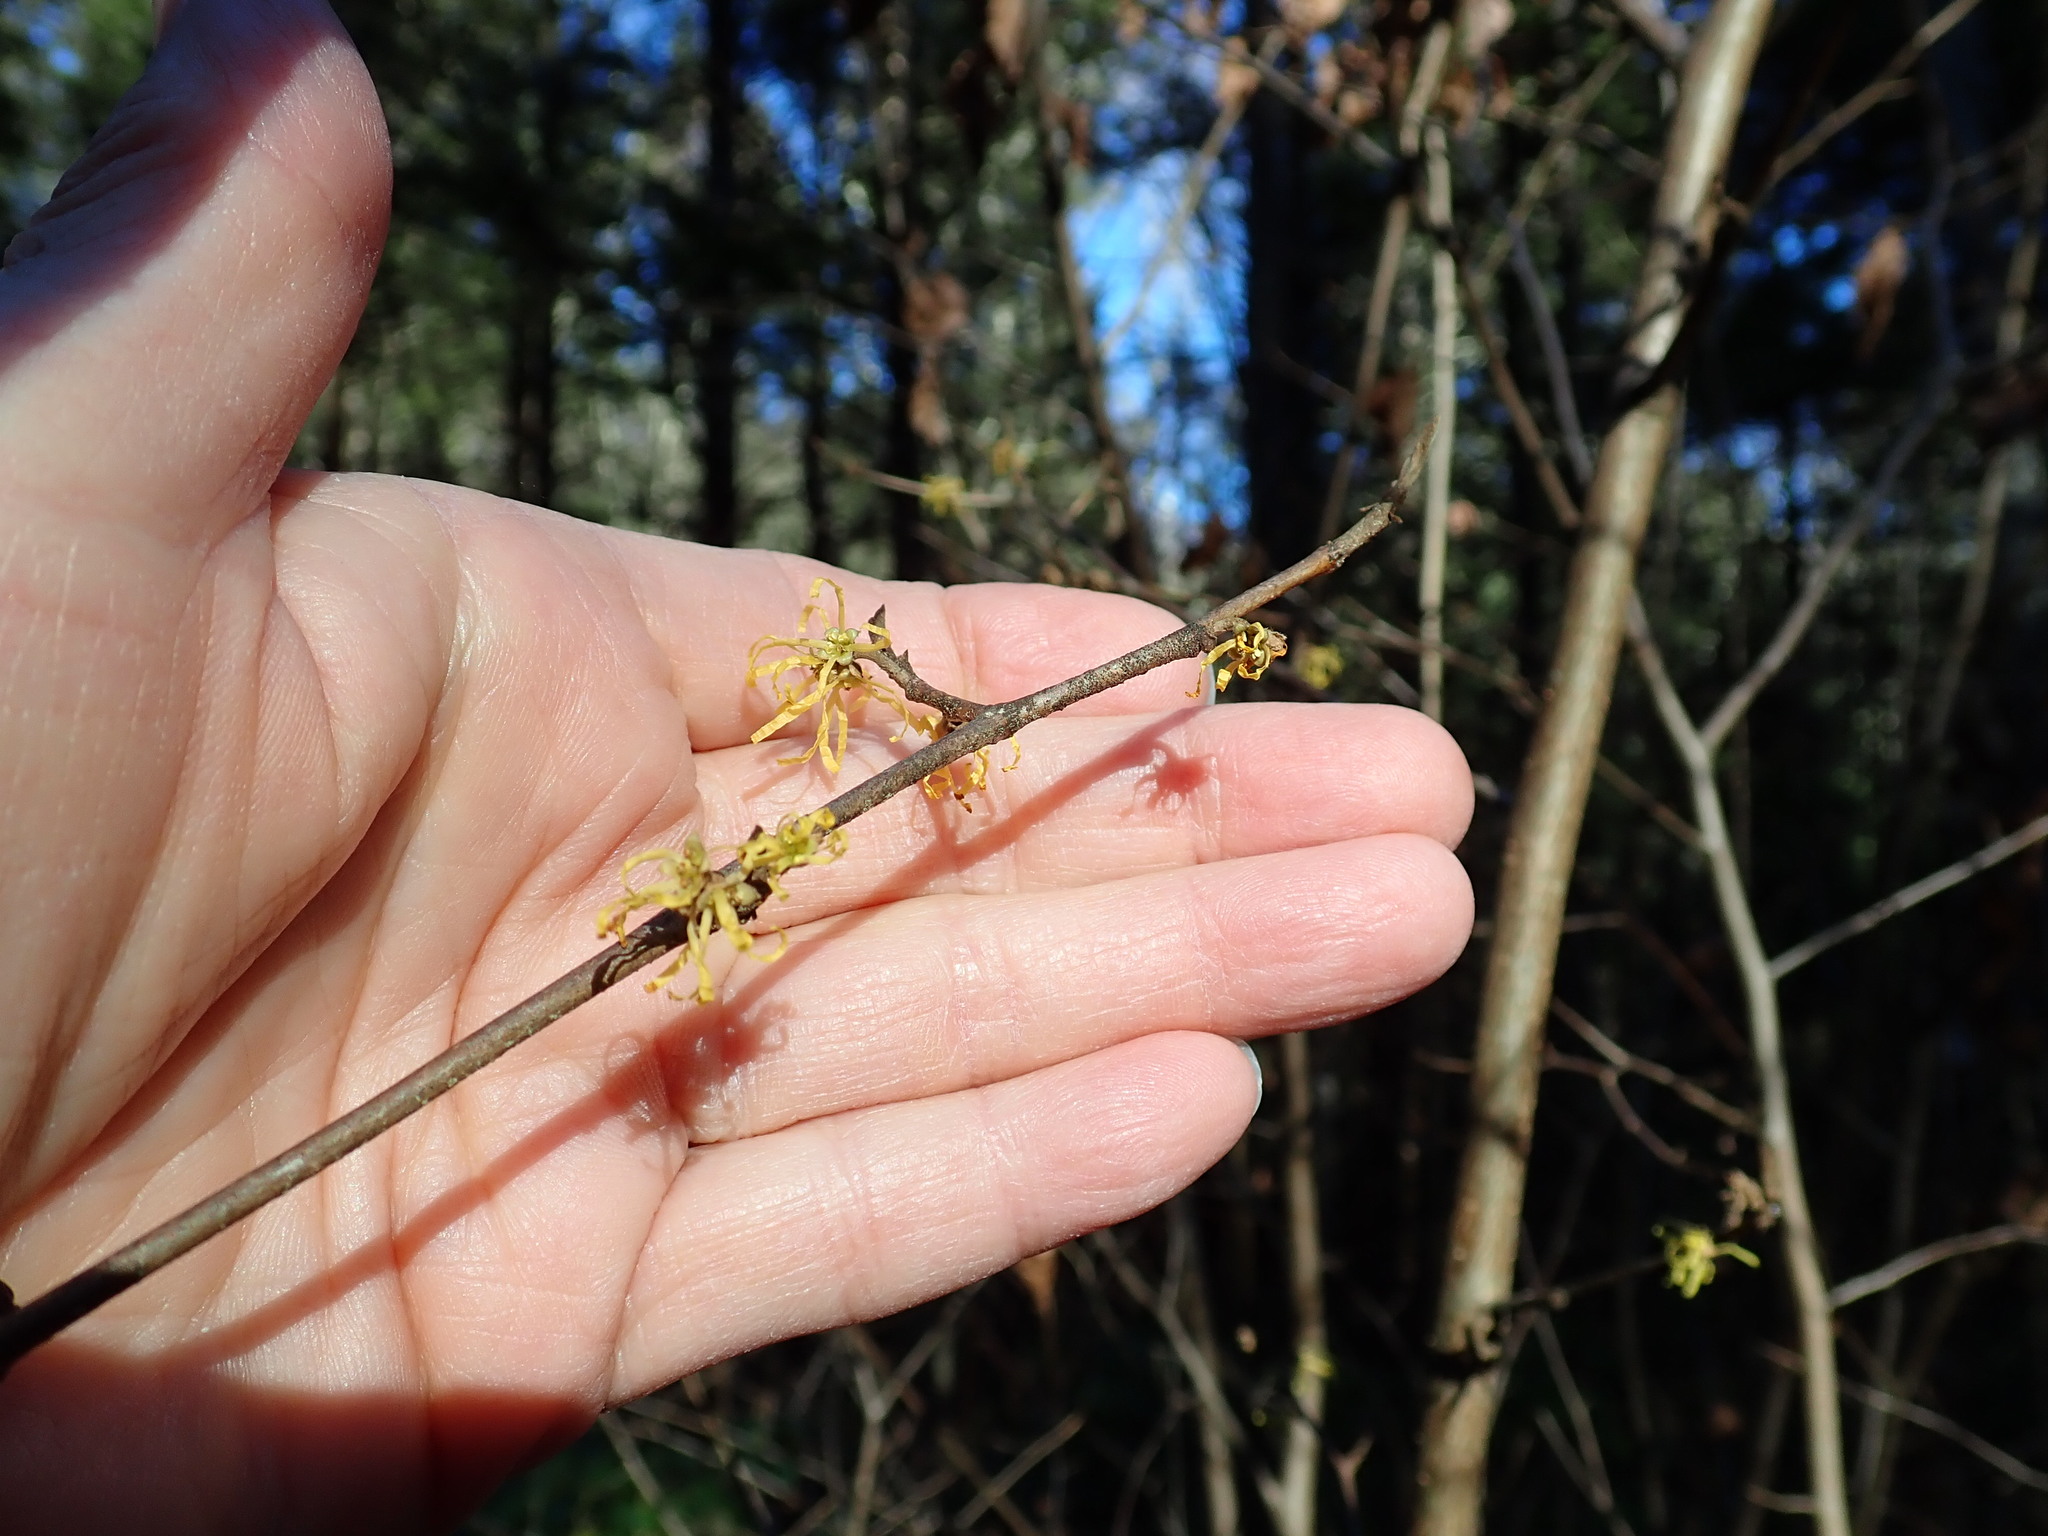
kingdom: Plantae
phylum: Tracheophyta
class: Magnoliopsida
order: Saxifragales
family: Hamamelidaceae
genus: Hamamelis
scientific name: Hamamelis virginiana
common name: Witch-hazel
